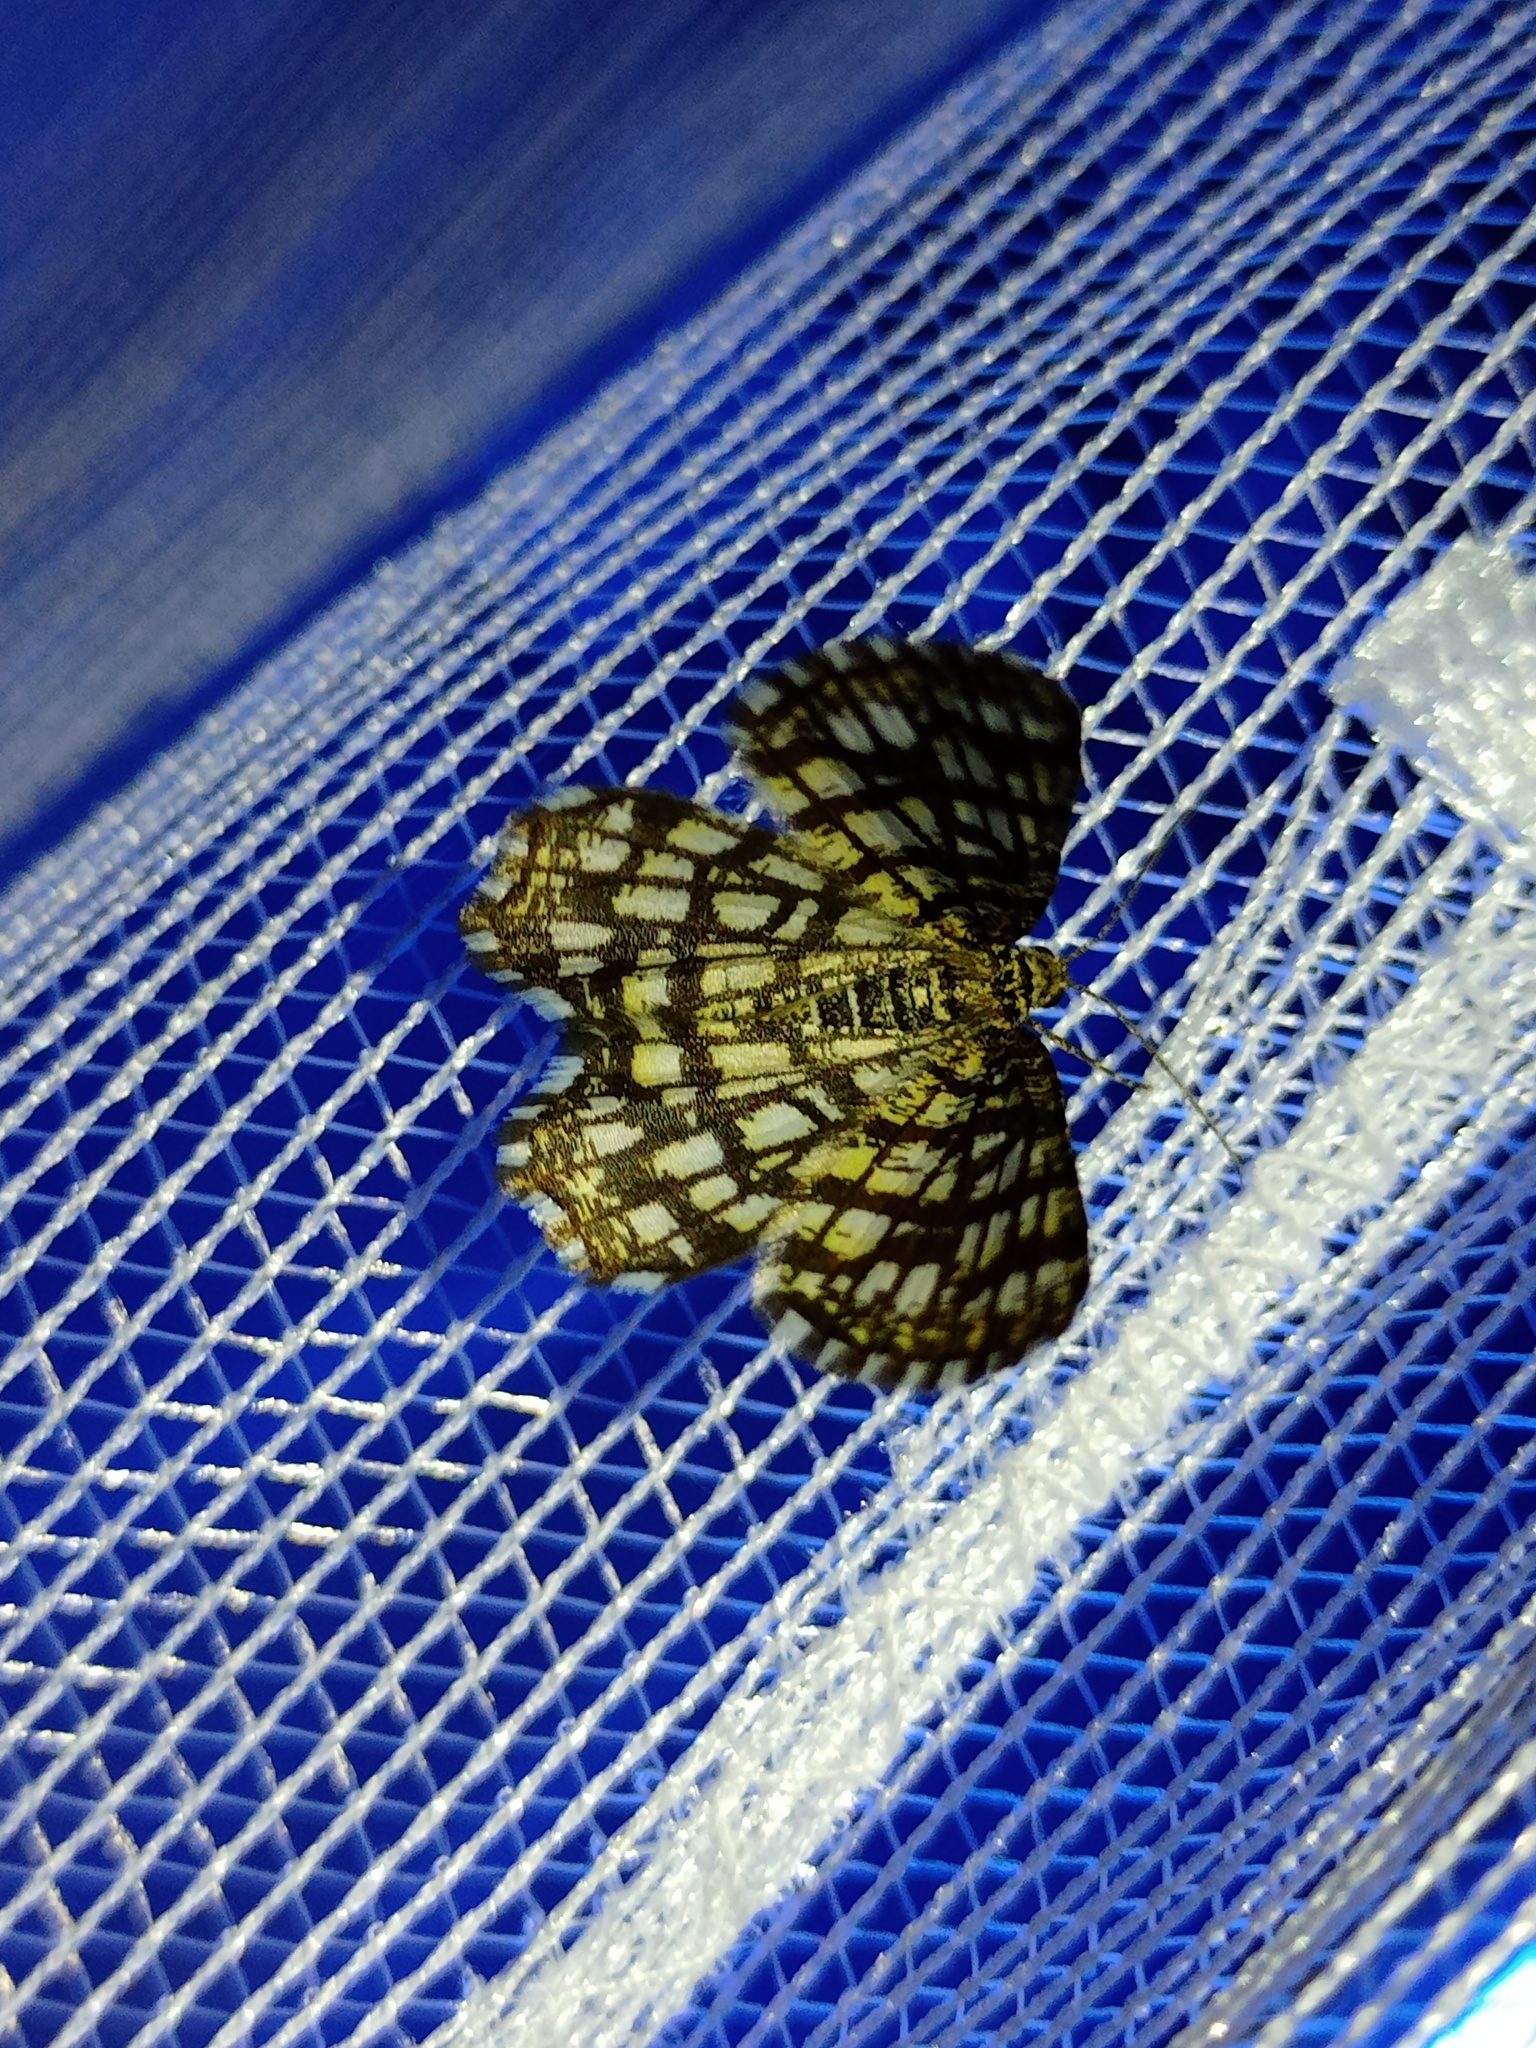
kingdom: Animalia
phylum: Arthropoda
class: Insecta
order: Lepidoptera
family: Geometridae
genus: Chiasmia
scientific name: Chiasmia clathrata
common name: Latticed heath
